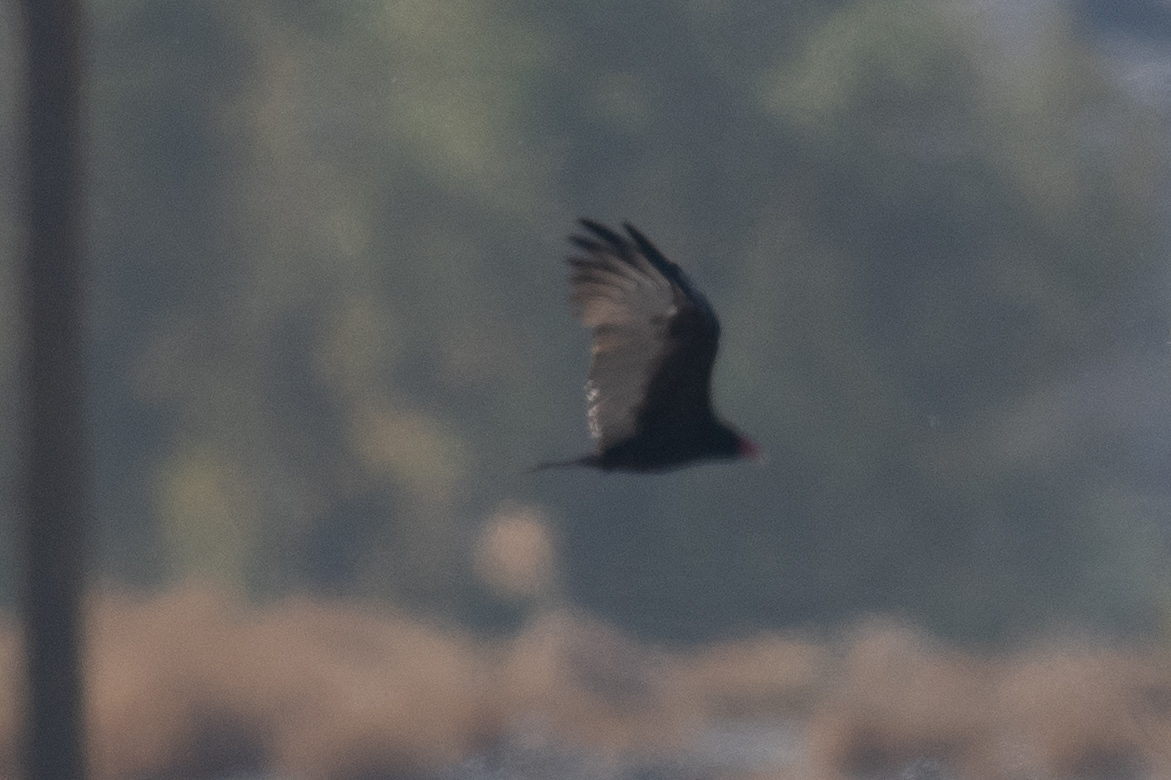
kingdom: Animalia
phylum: Chordata
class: Aves
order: Accipitriformes
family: Cathartidae
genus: Cathartes
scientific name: Cathartes aura
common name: Turkey vulture
